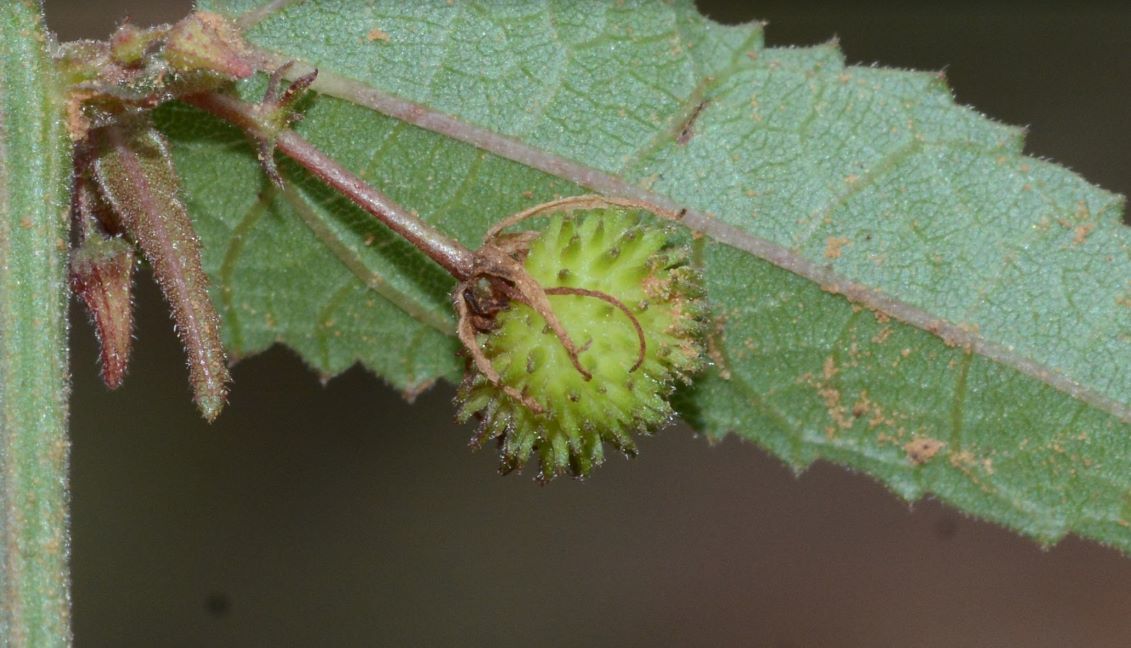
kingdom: Plantae
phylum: Tracheophyta
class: Magnoliopsida
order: Malvales
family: Malvaceae
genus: Byttneria
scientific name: Byttneria herbacea
